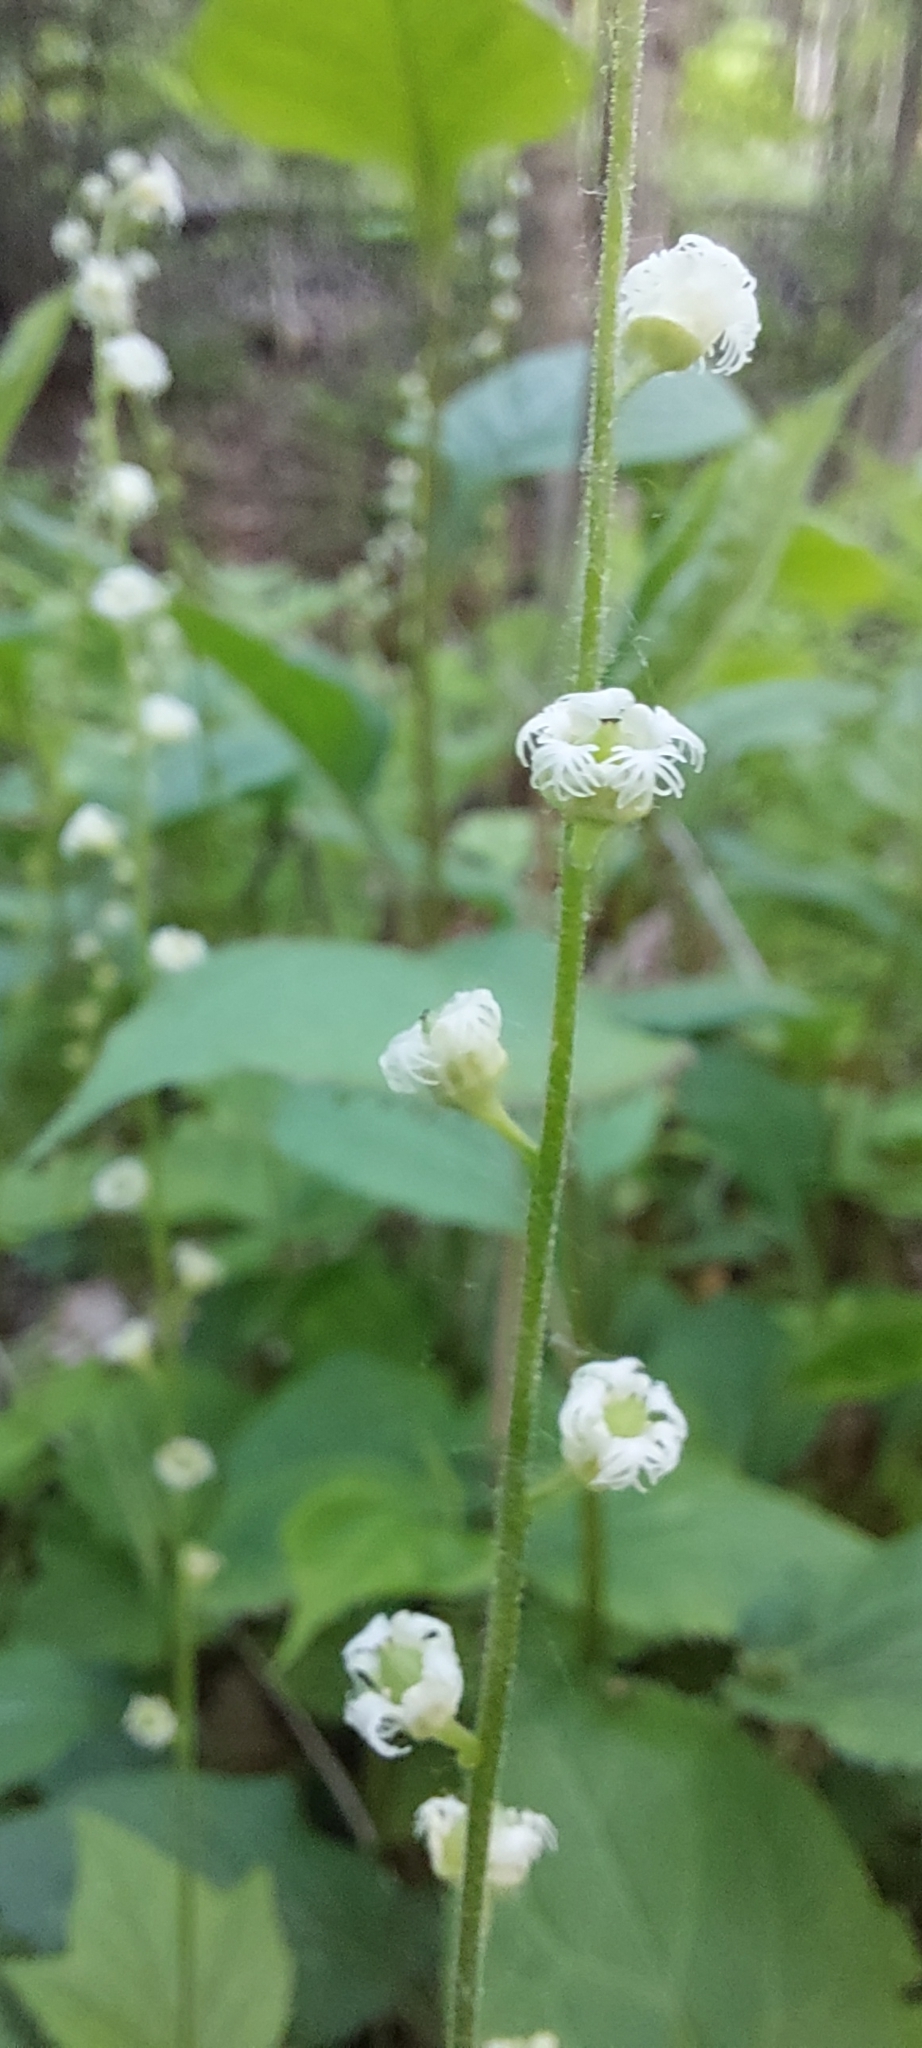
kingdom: Plantae
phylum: Tracheophyta
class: Magnoliopsida
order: Saxifragales
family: Saxifragaceae
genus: Mitella
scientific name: Mitella diphylla
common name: Coolwort
